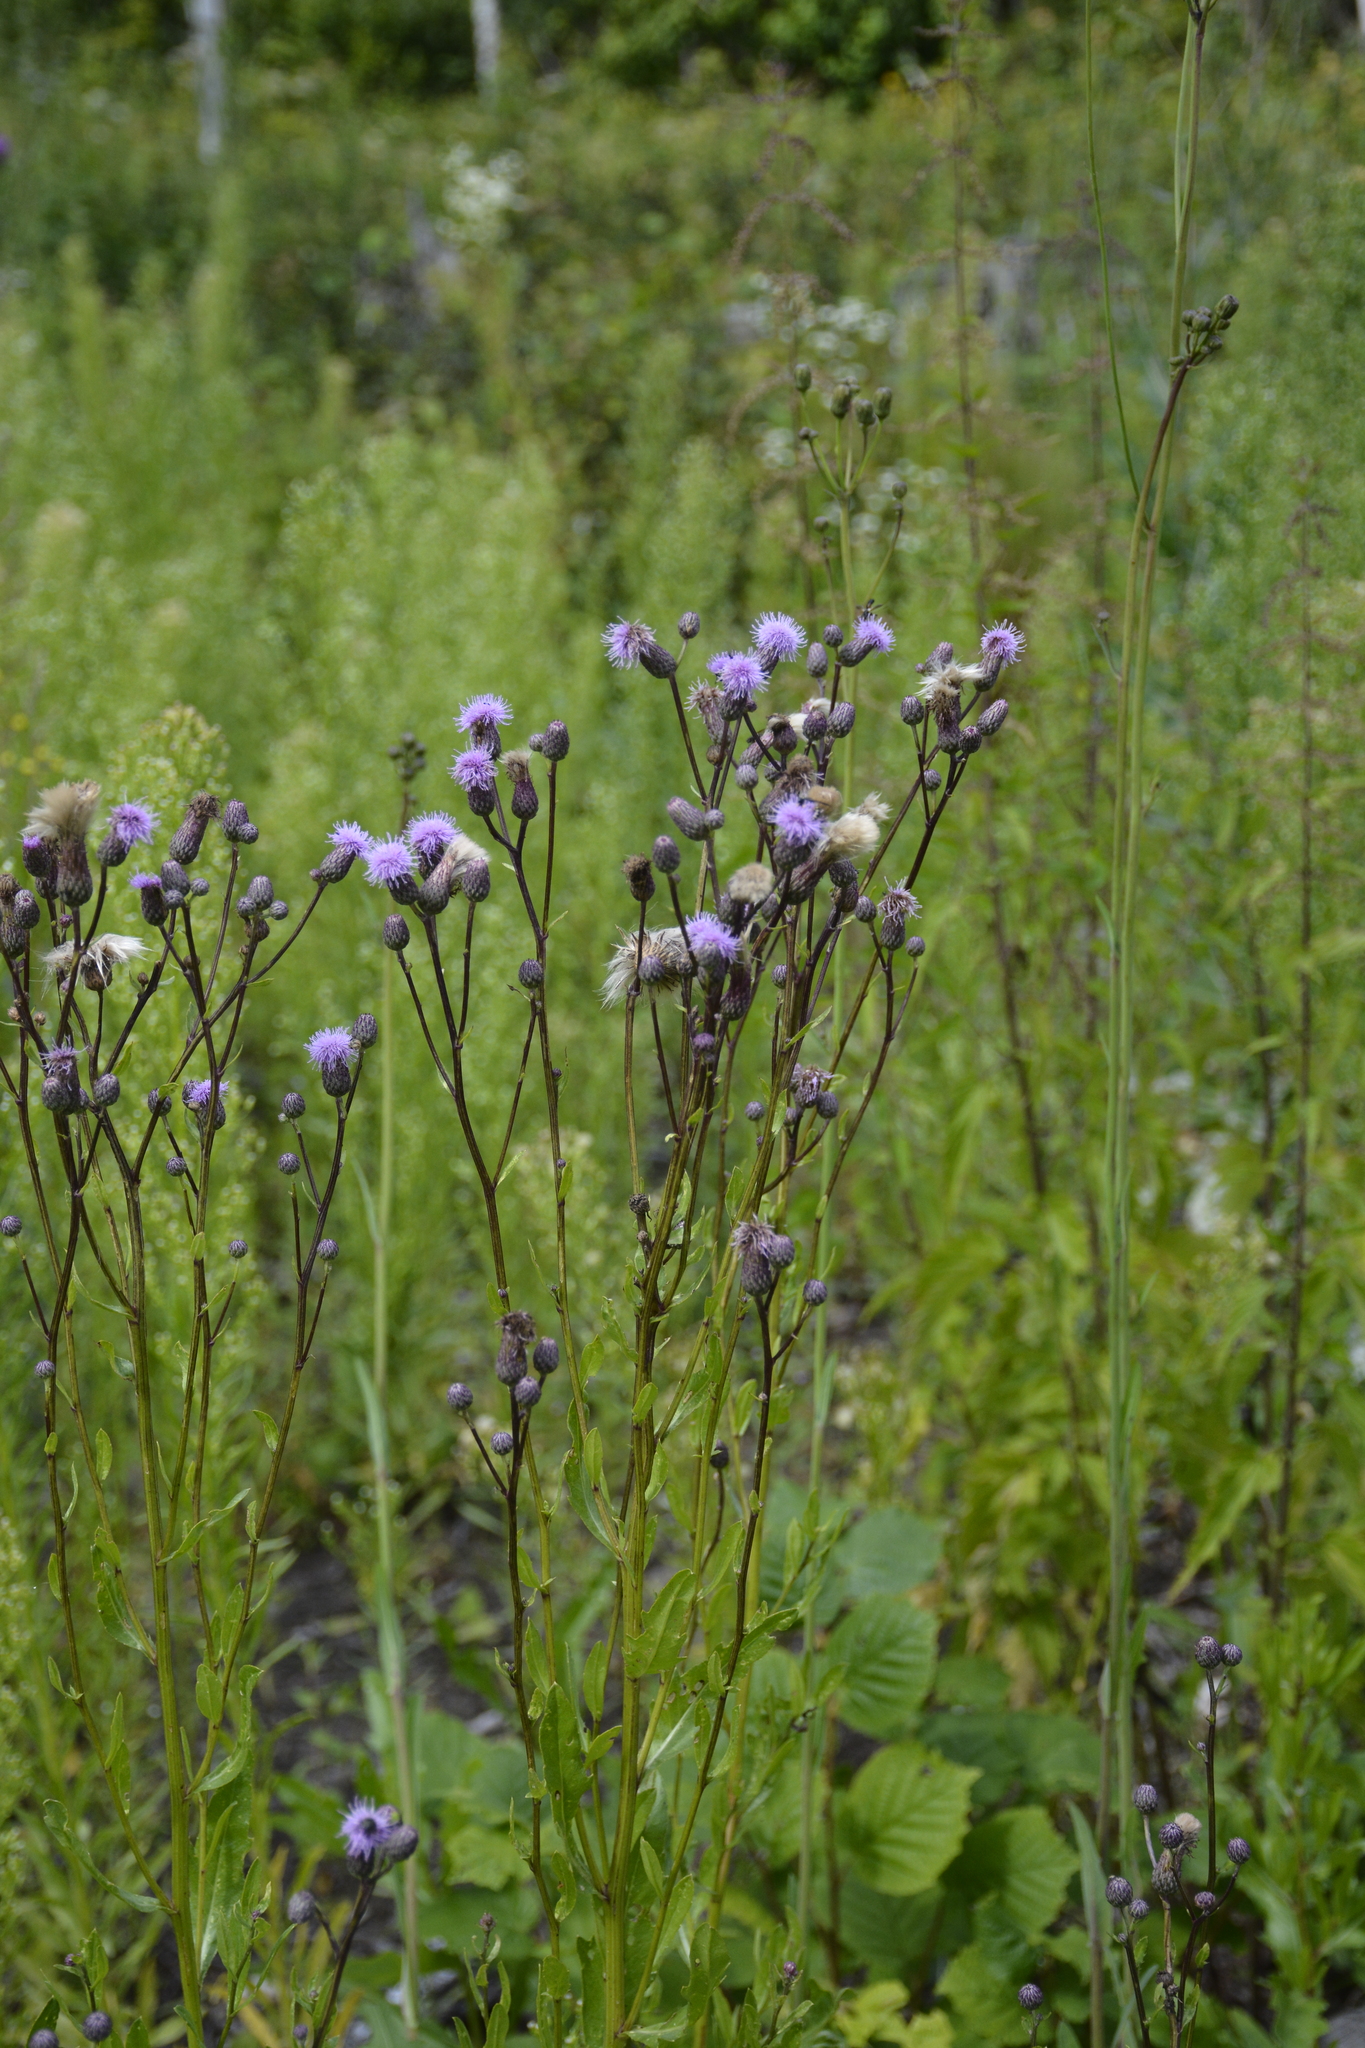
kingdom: Plantae
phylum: Tracheophyta
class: Magnoliopsida
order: Asterales
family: Asteraceae
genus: Cirsium
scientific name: Cirsium arvense
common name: Creeping thistle
